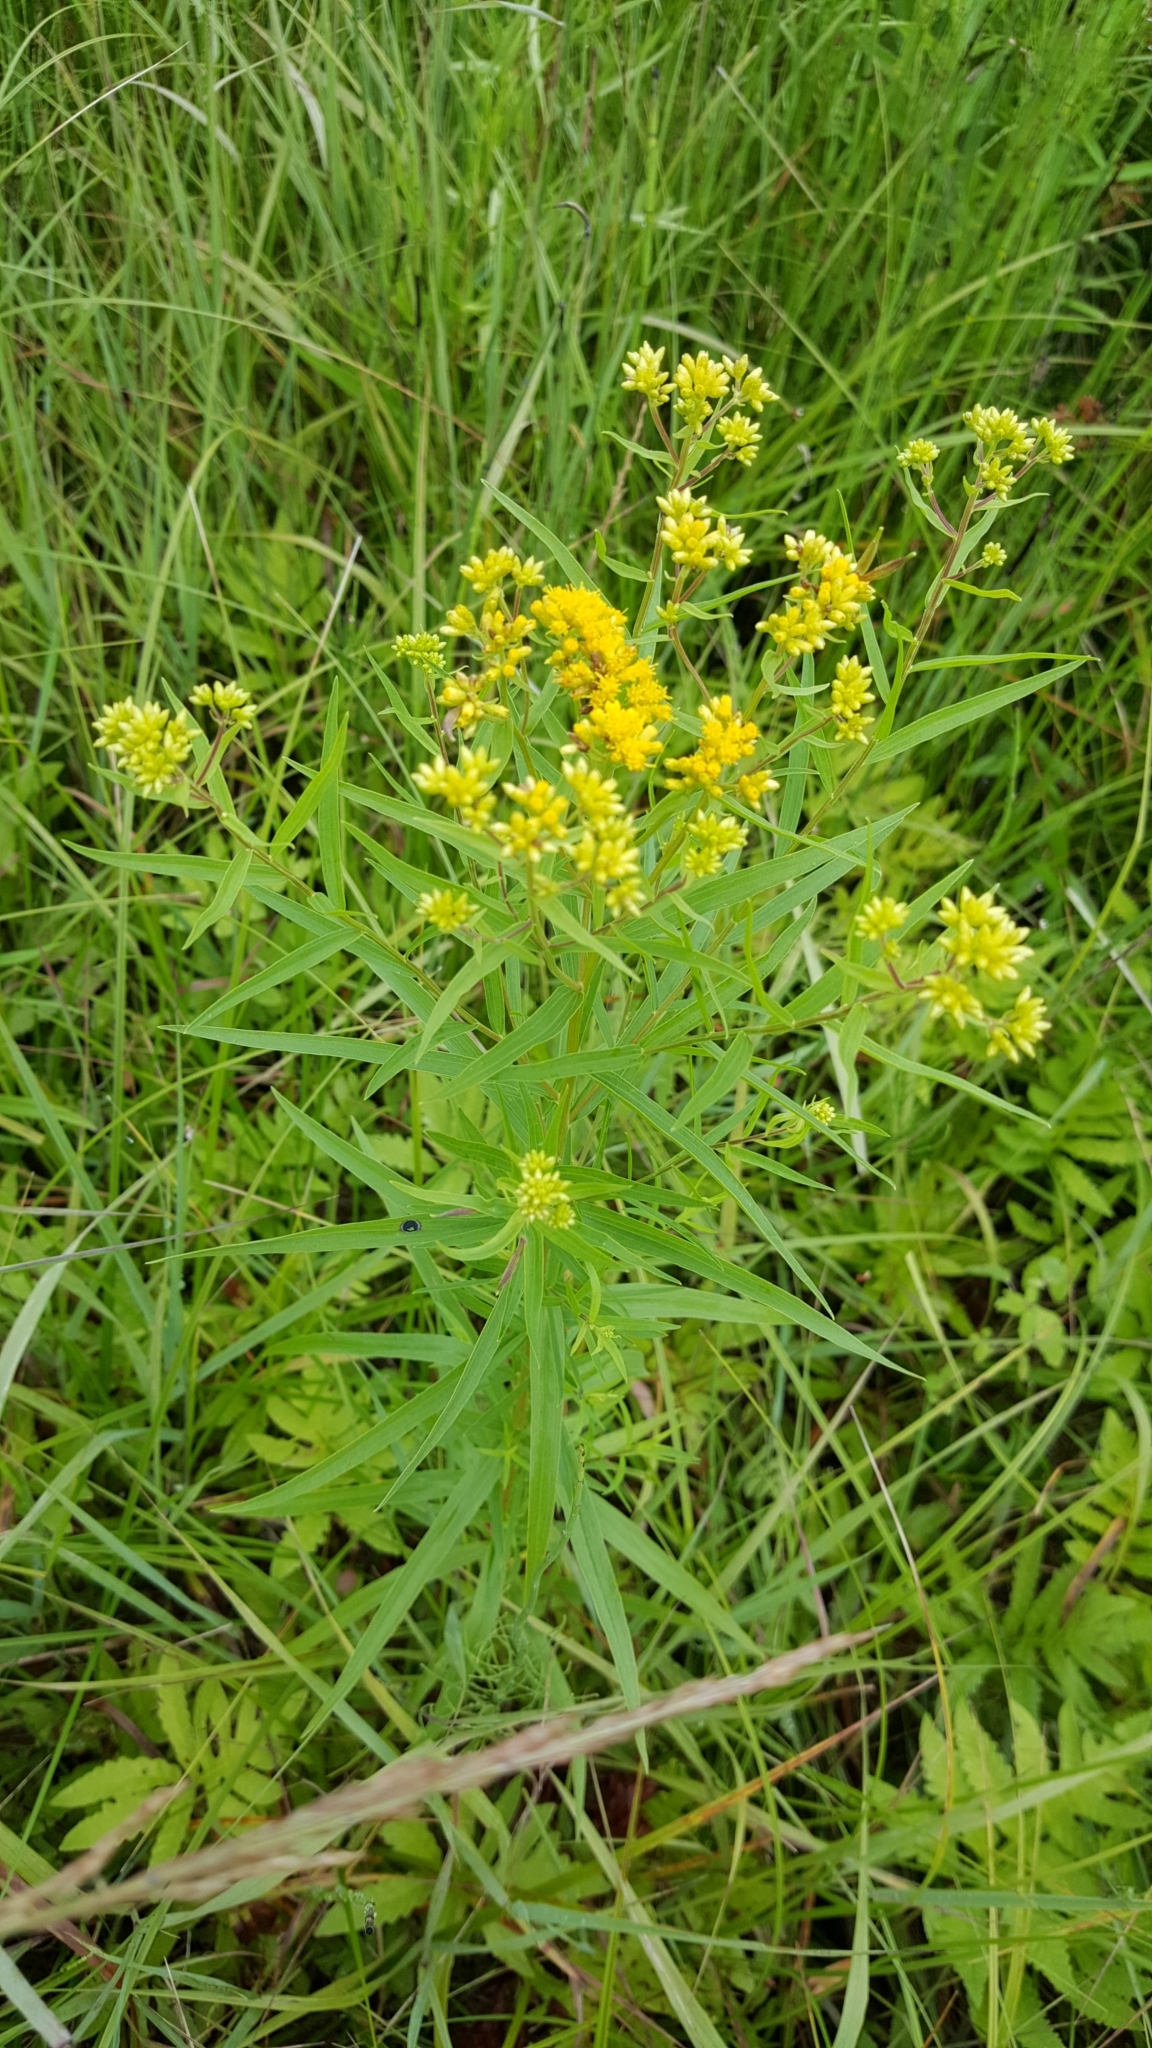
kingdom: Plantae
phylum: Tracheophyta
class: Magnoliopsida
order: Asterales
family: Asteraceae
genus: Euthamia
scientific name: Euthamia graminifolia
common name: Common goldentop
